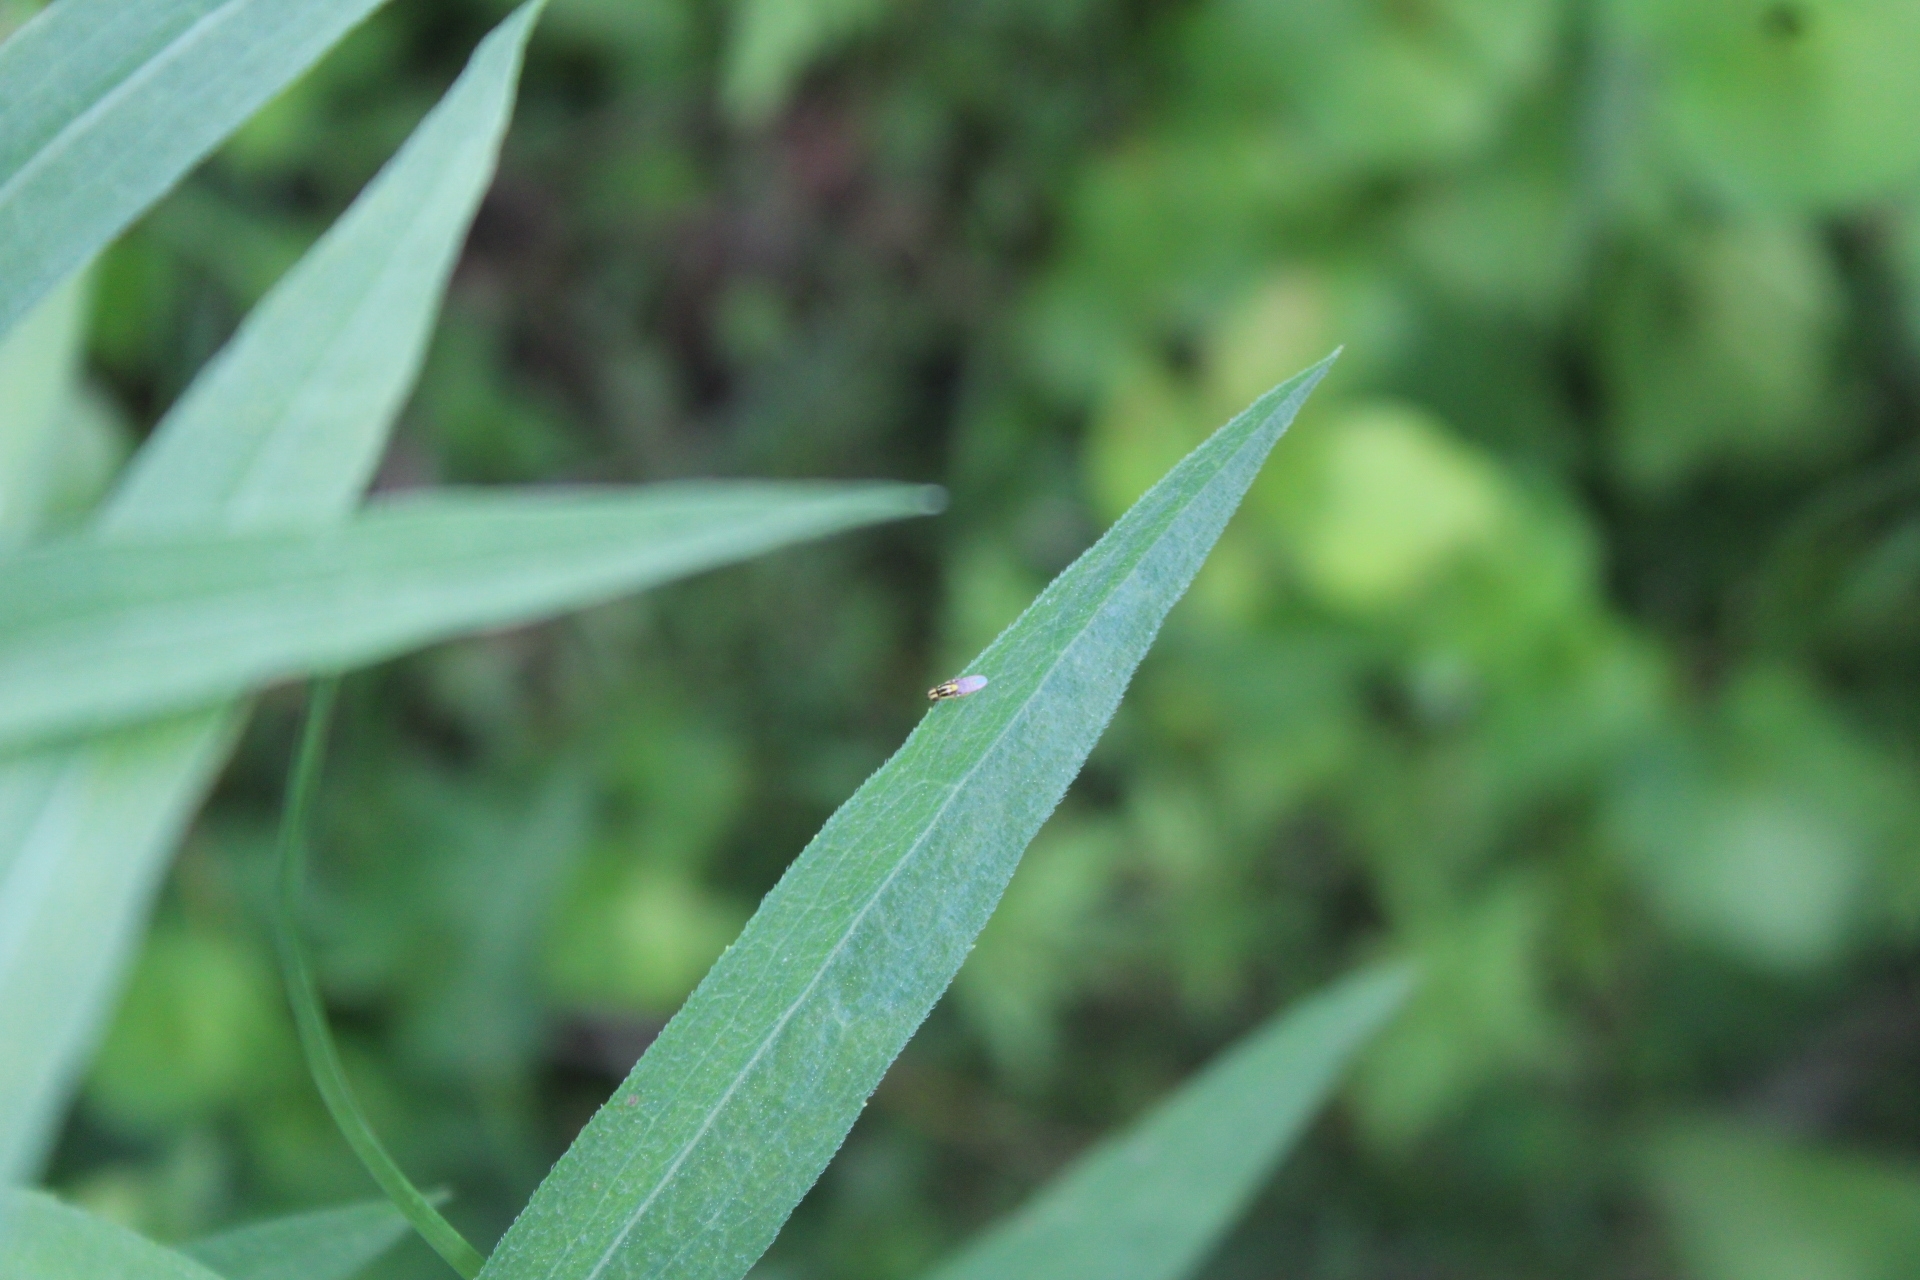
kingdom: Animalia
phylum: Arthropoda
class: Insecta
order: Diptera
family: Chloropidae
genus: Thaumatomyia
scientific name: Thaumatomyia glabra
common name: Chloropid fly
